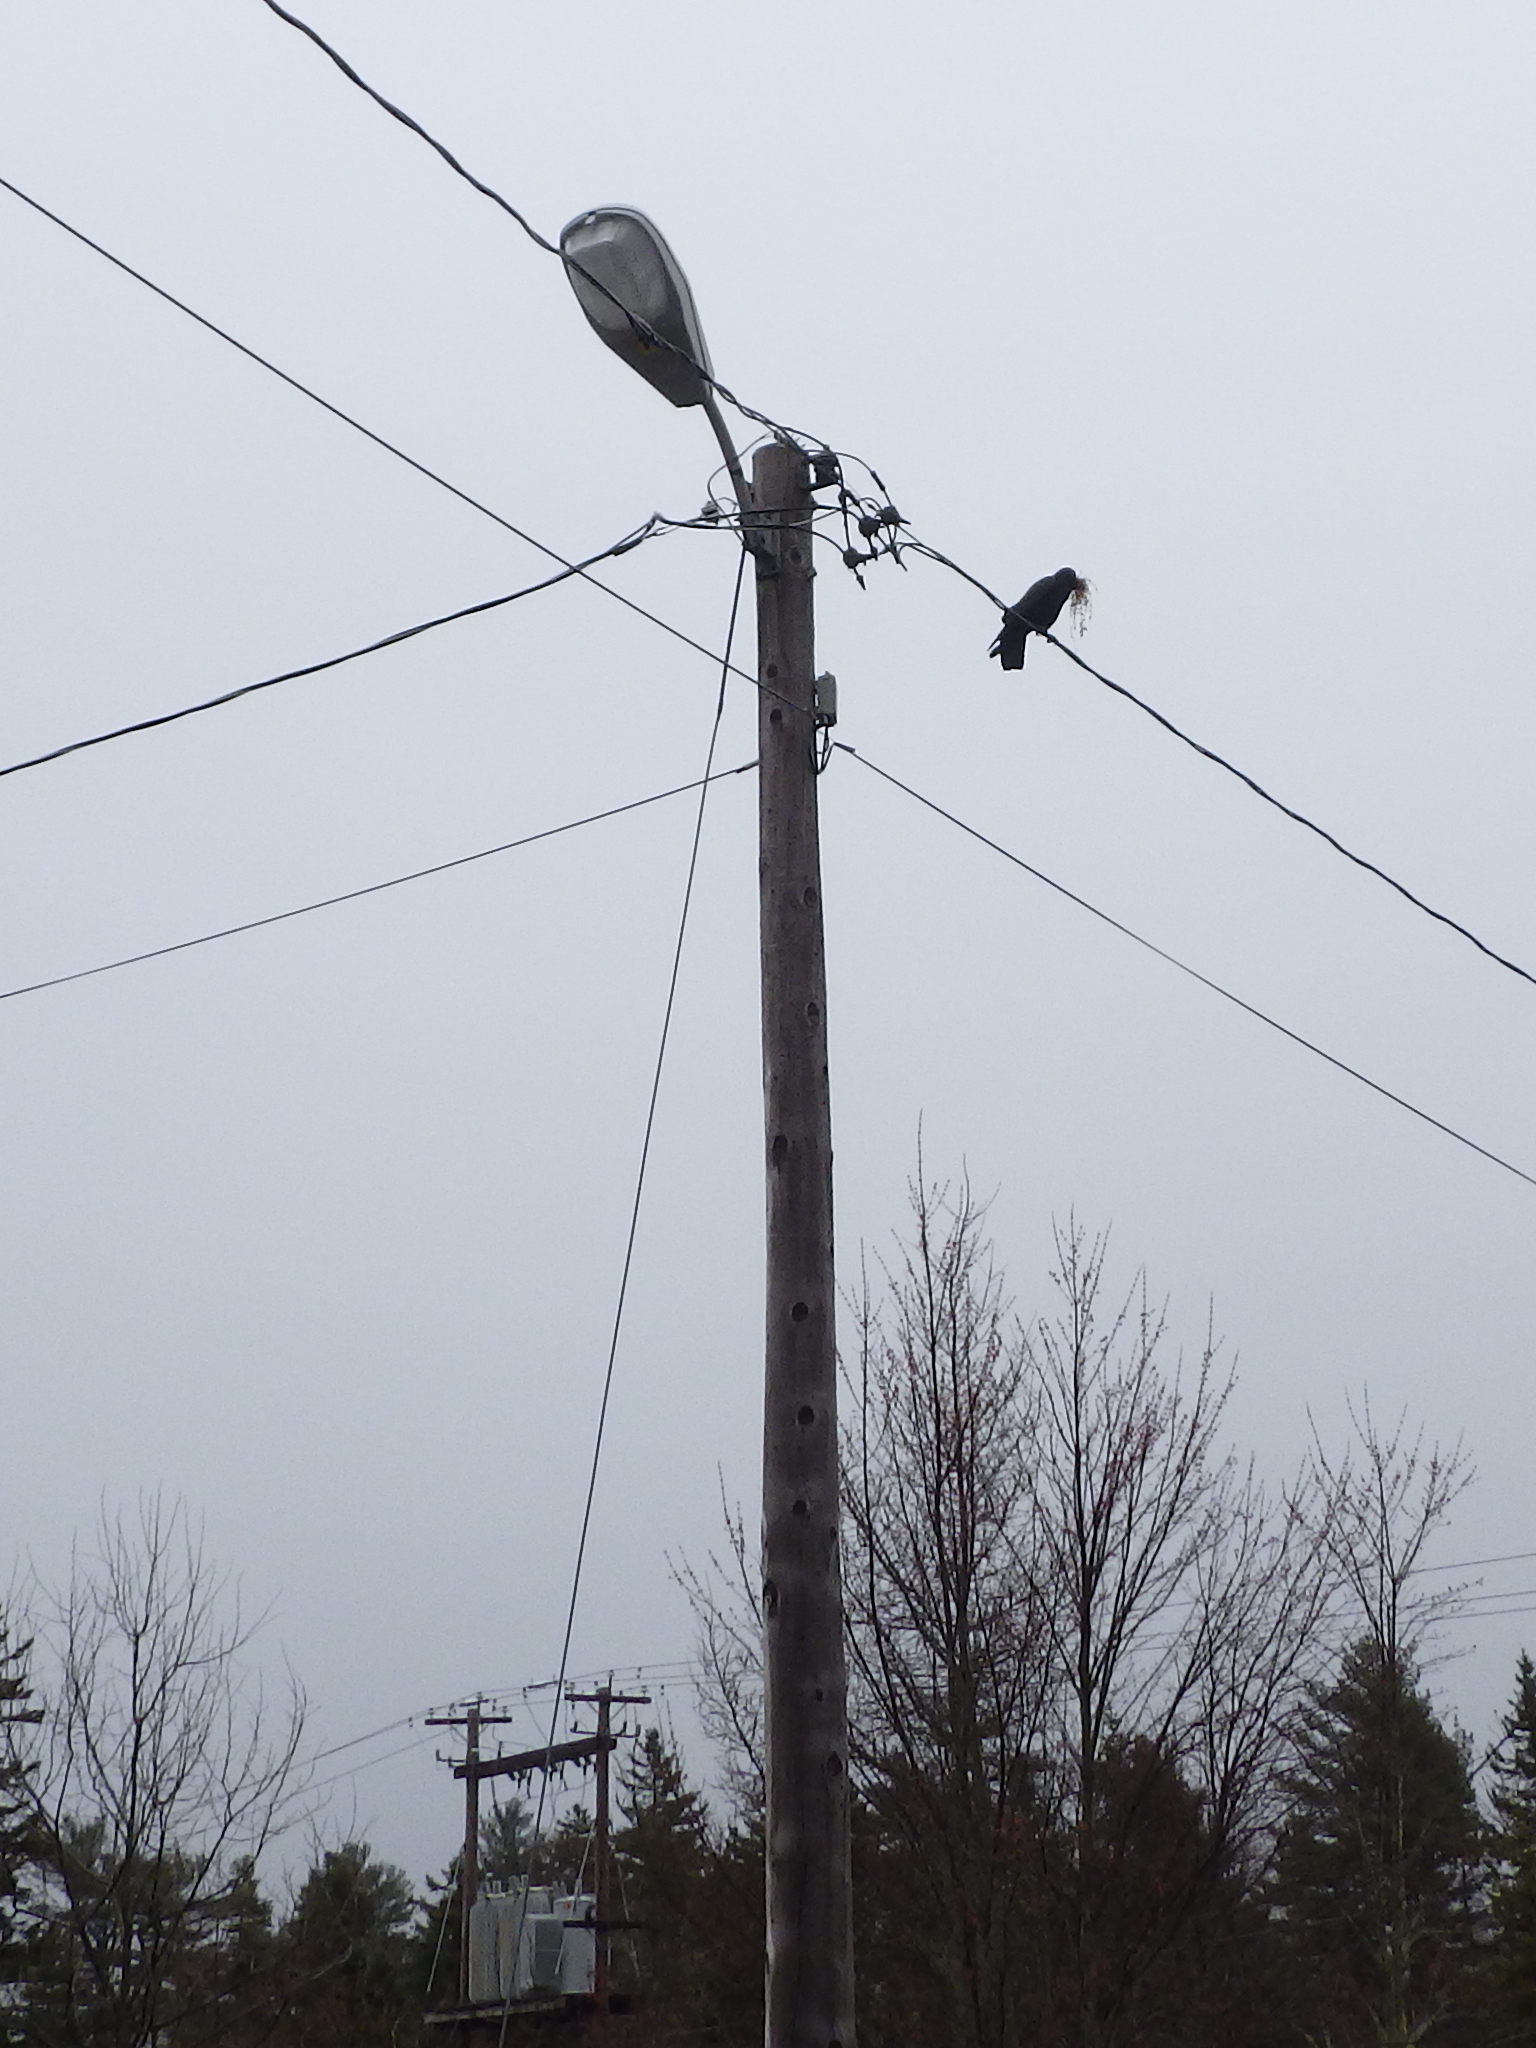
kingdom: Animalia
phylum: Chordata
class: Aves
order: Passeriformes
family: Corvidae
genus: Corvus
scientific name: Corvus brachyrhynchos
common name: American crow
